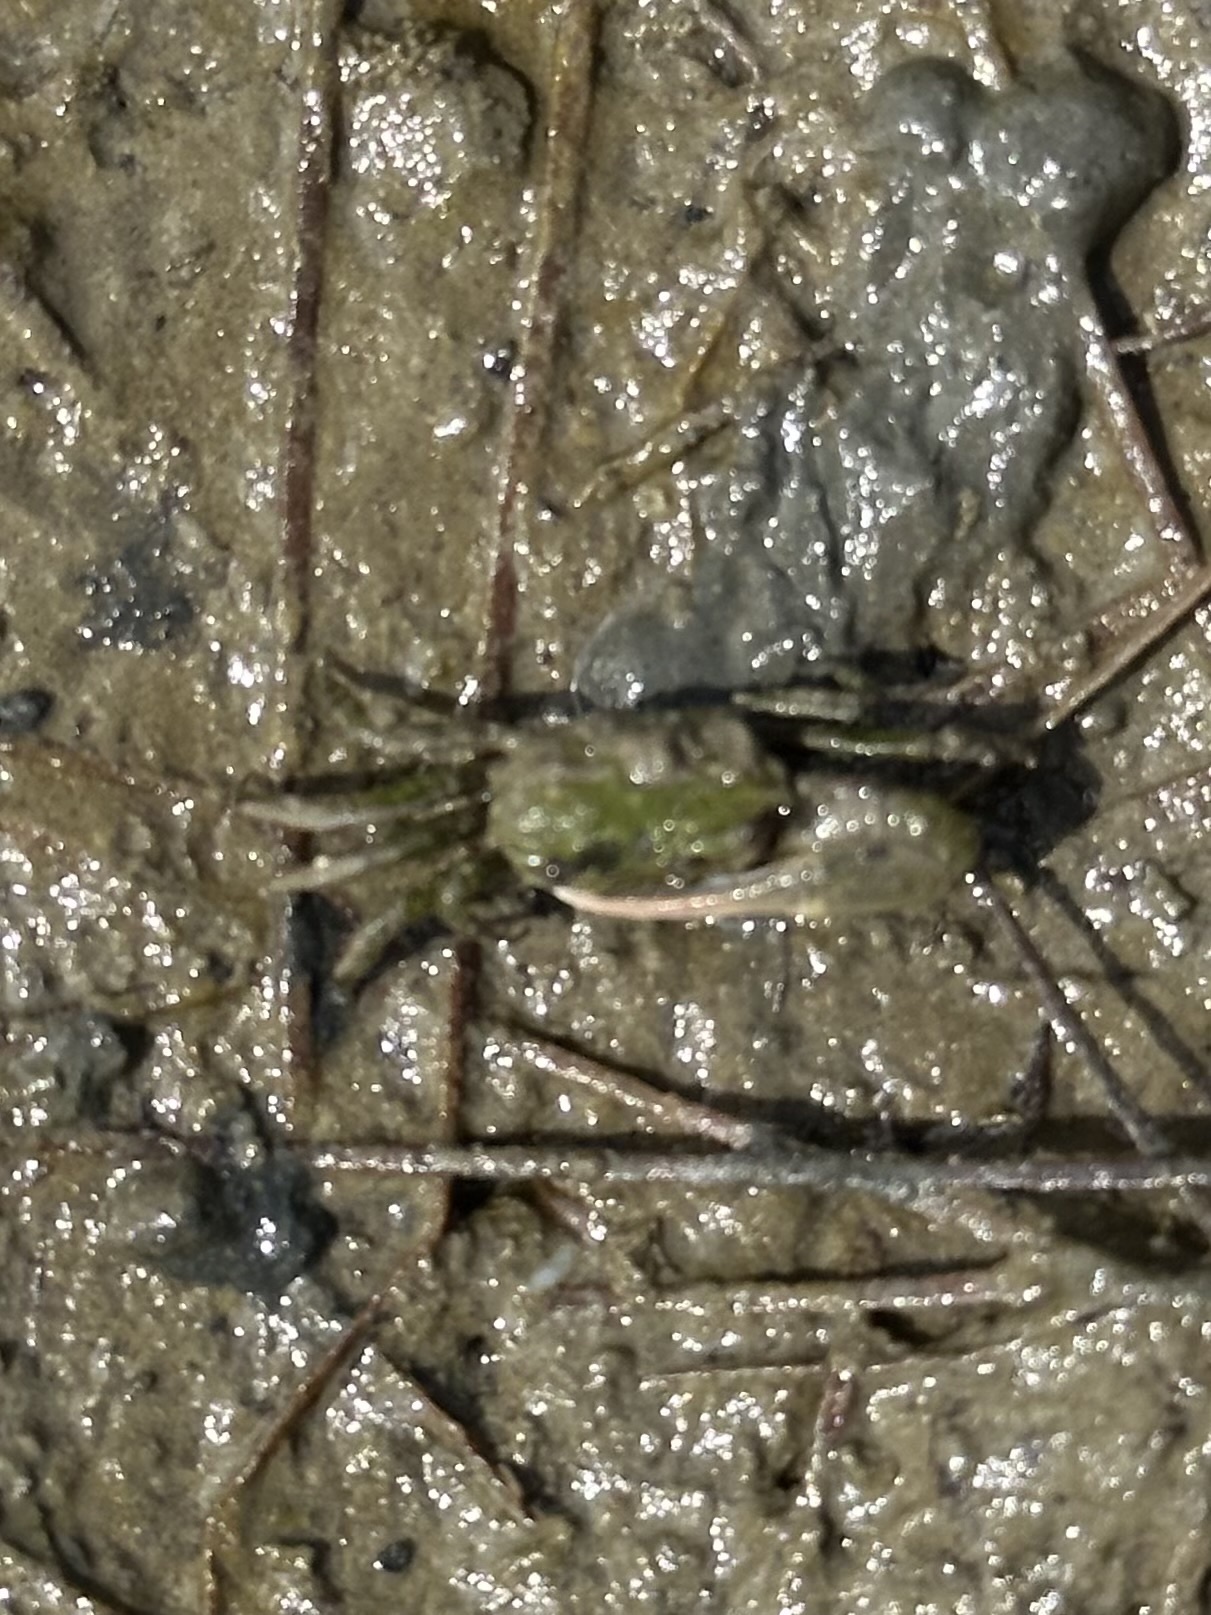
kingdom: Animalia
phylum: Arthropoda
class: Malacostraca
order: Decapoda
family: Ocypodidae
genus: Leptuca
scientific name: Leptuca speciosa
